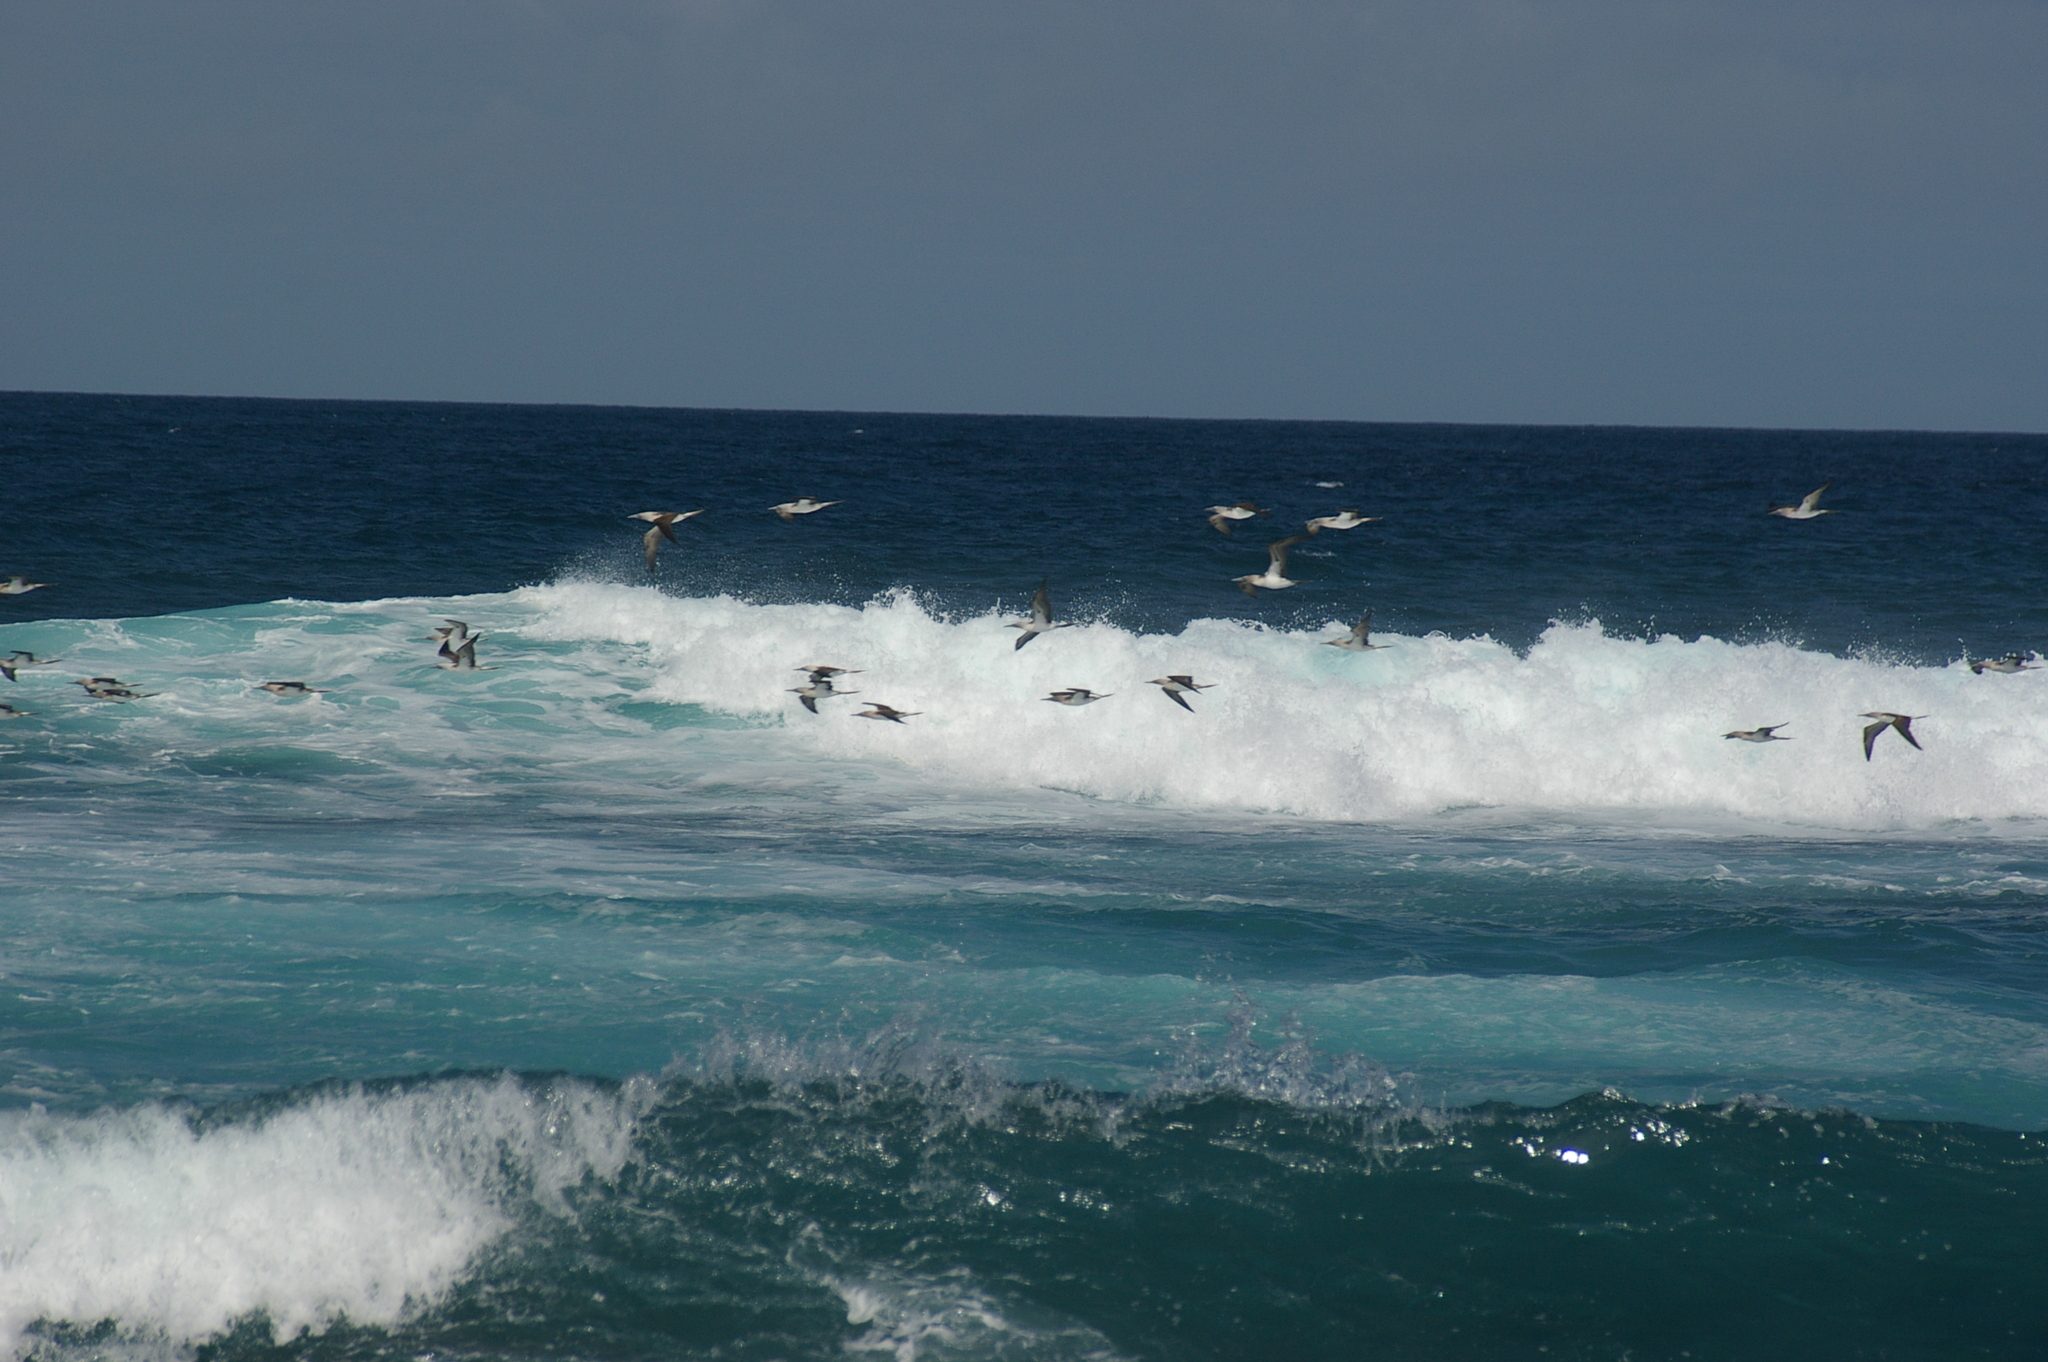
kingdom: Animalia
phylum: Chordata
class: Aves
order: Suliformes
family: Sulidae
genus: Sula
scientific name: Sula nebouxii
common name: Blue-footed booby
